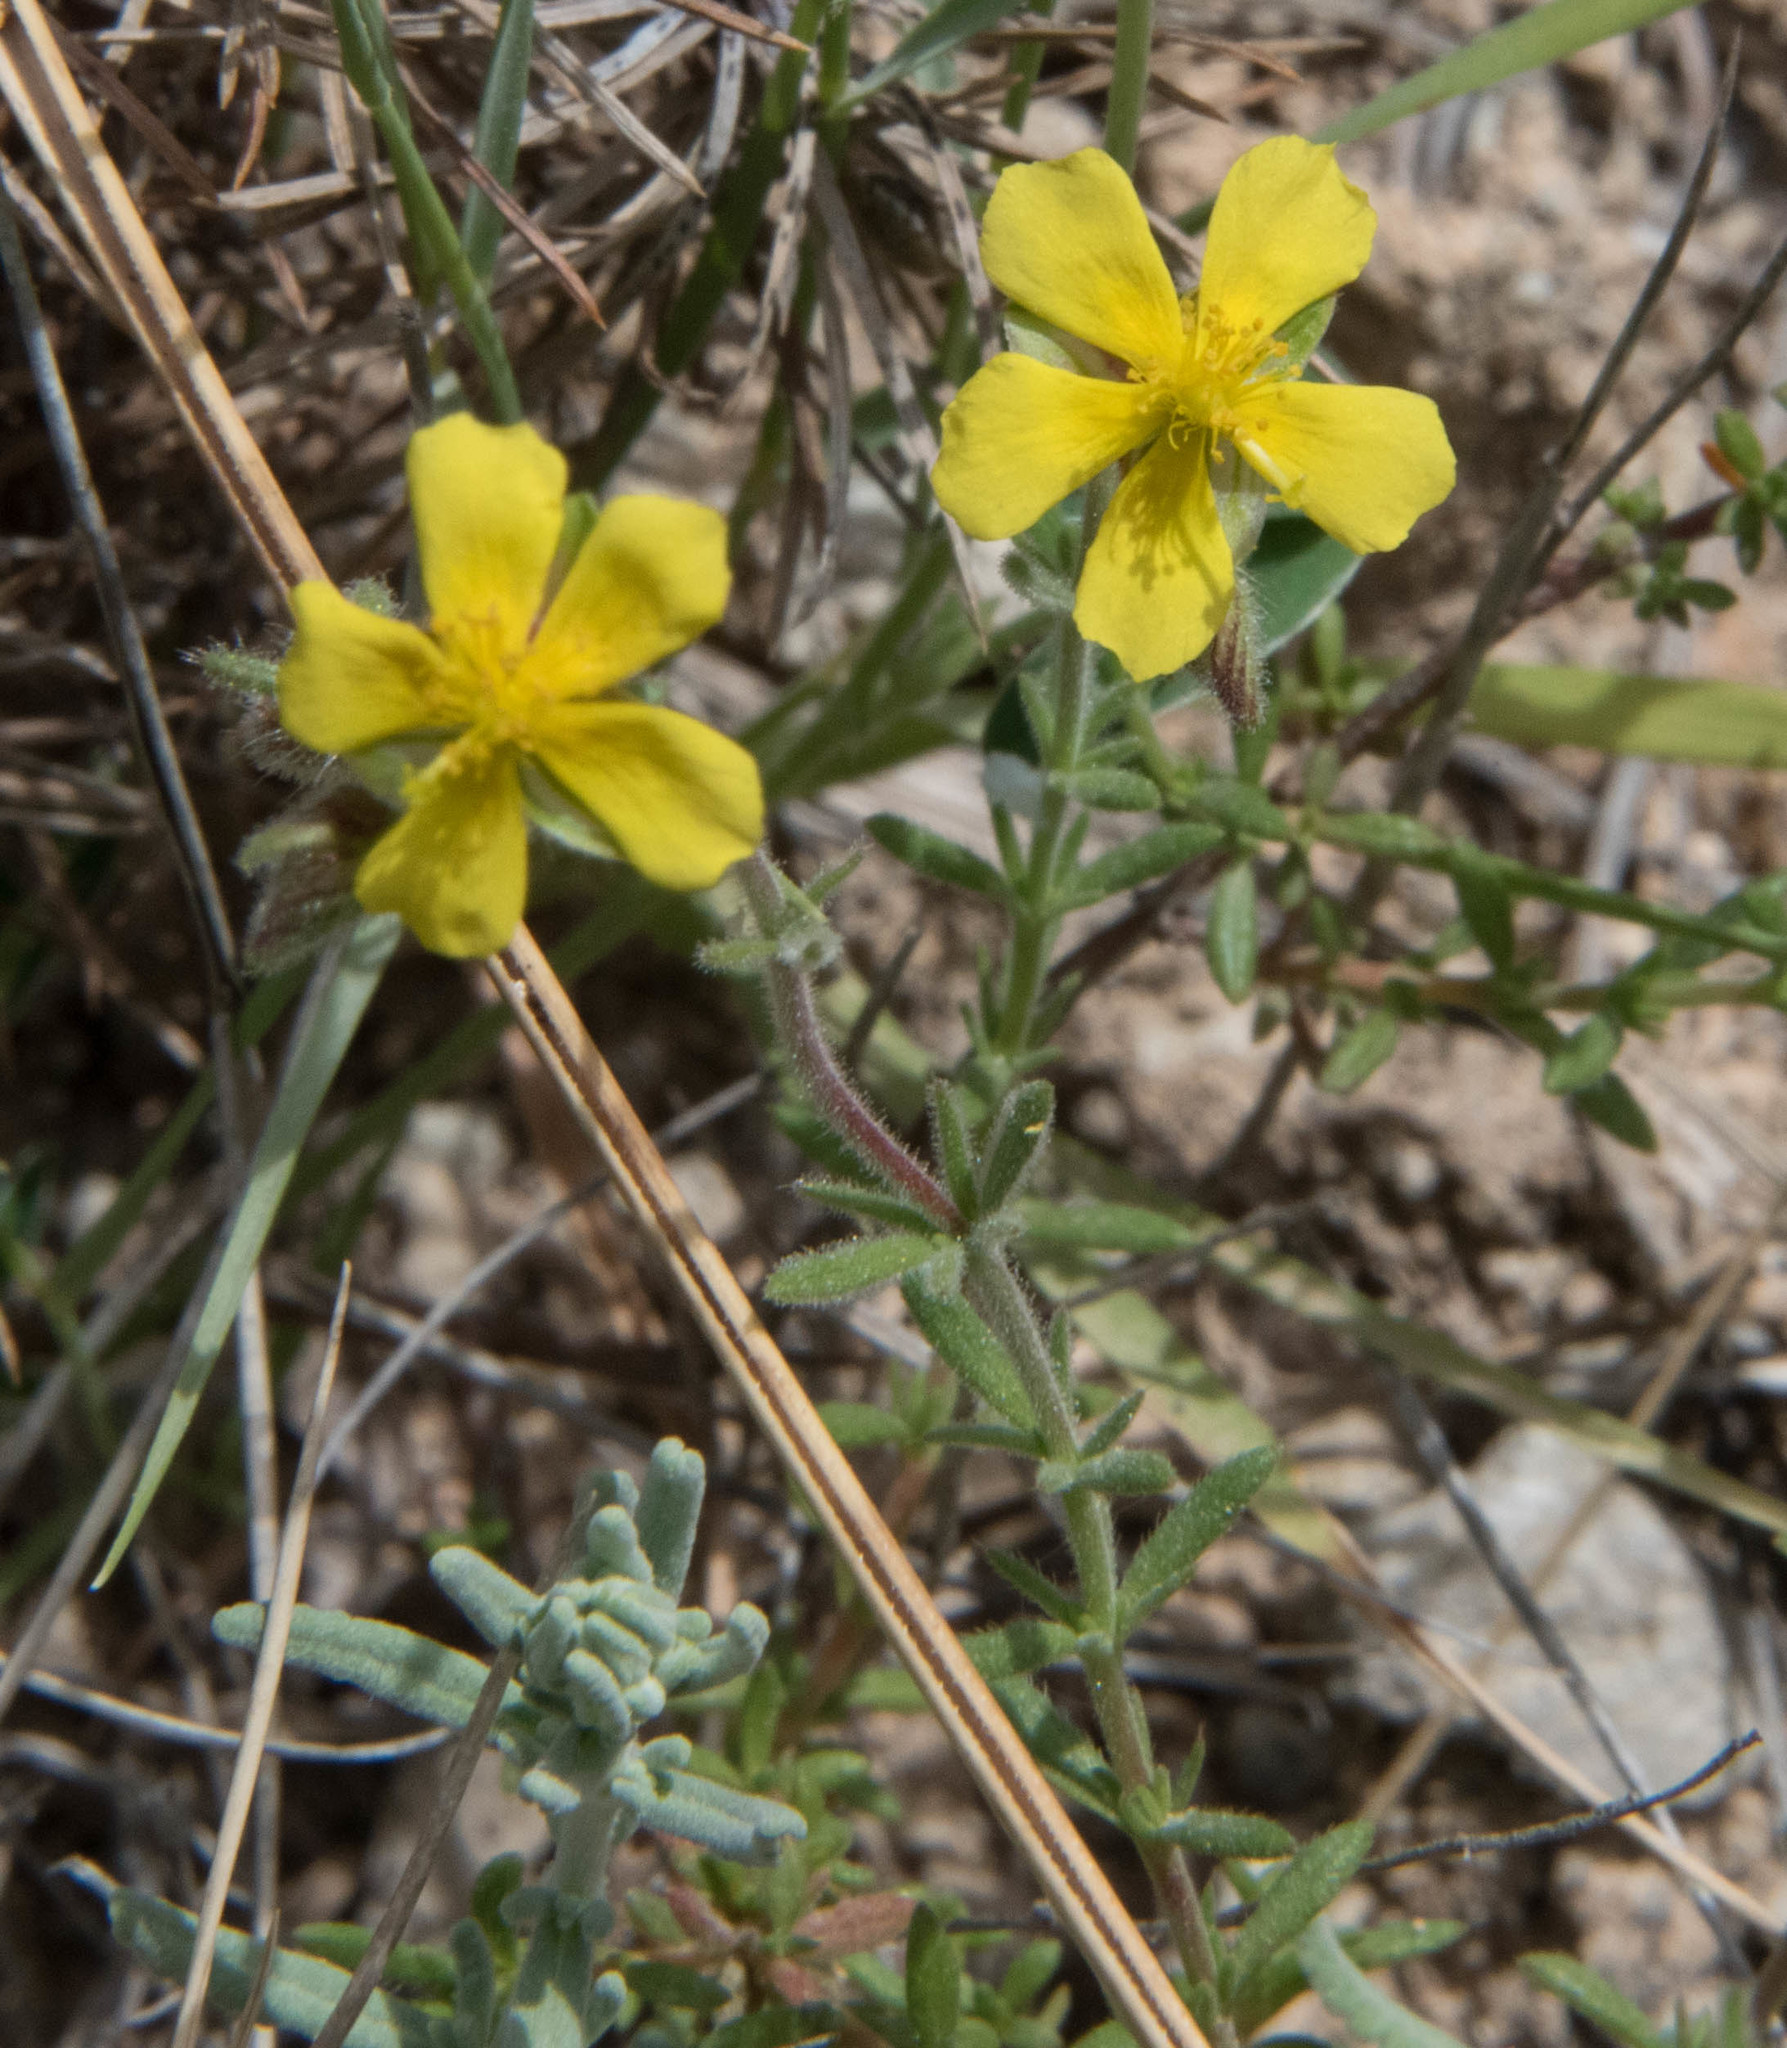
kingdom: Plantae
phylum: Tracheophyta
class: Magnoliopsida
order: Malvales
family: Cistaceae
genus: Fumana
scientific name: Fumana thymifolia
